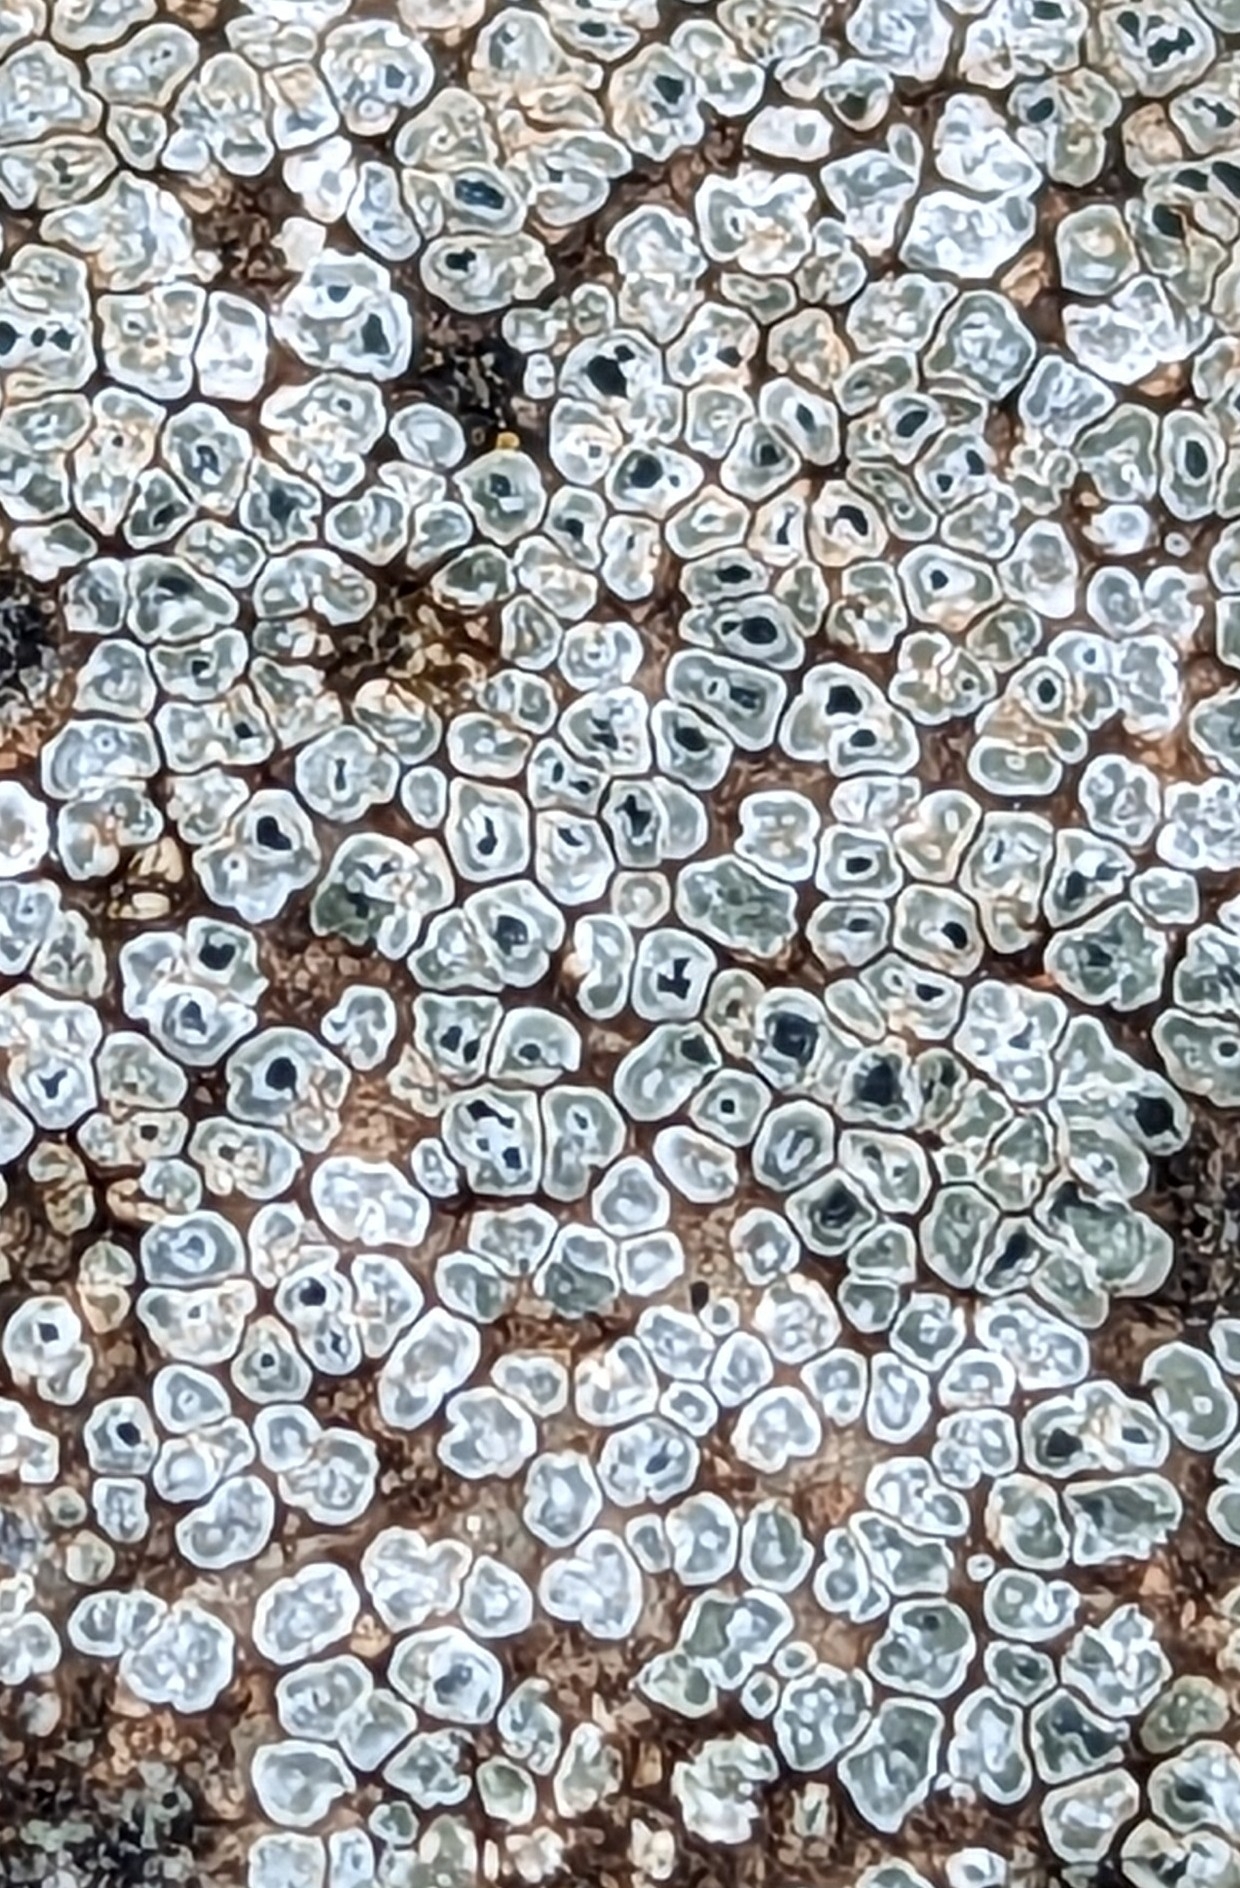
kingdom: Fungi
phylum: Ascomycota
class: Lecanoromycetes
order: Pertusariales
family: Megasporaceae
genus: Circinaria
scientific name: Circinaria contorta
